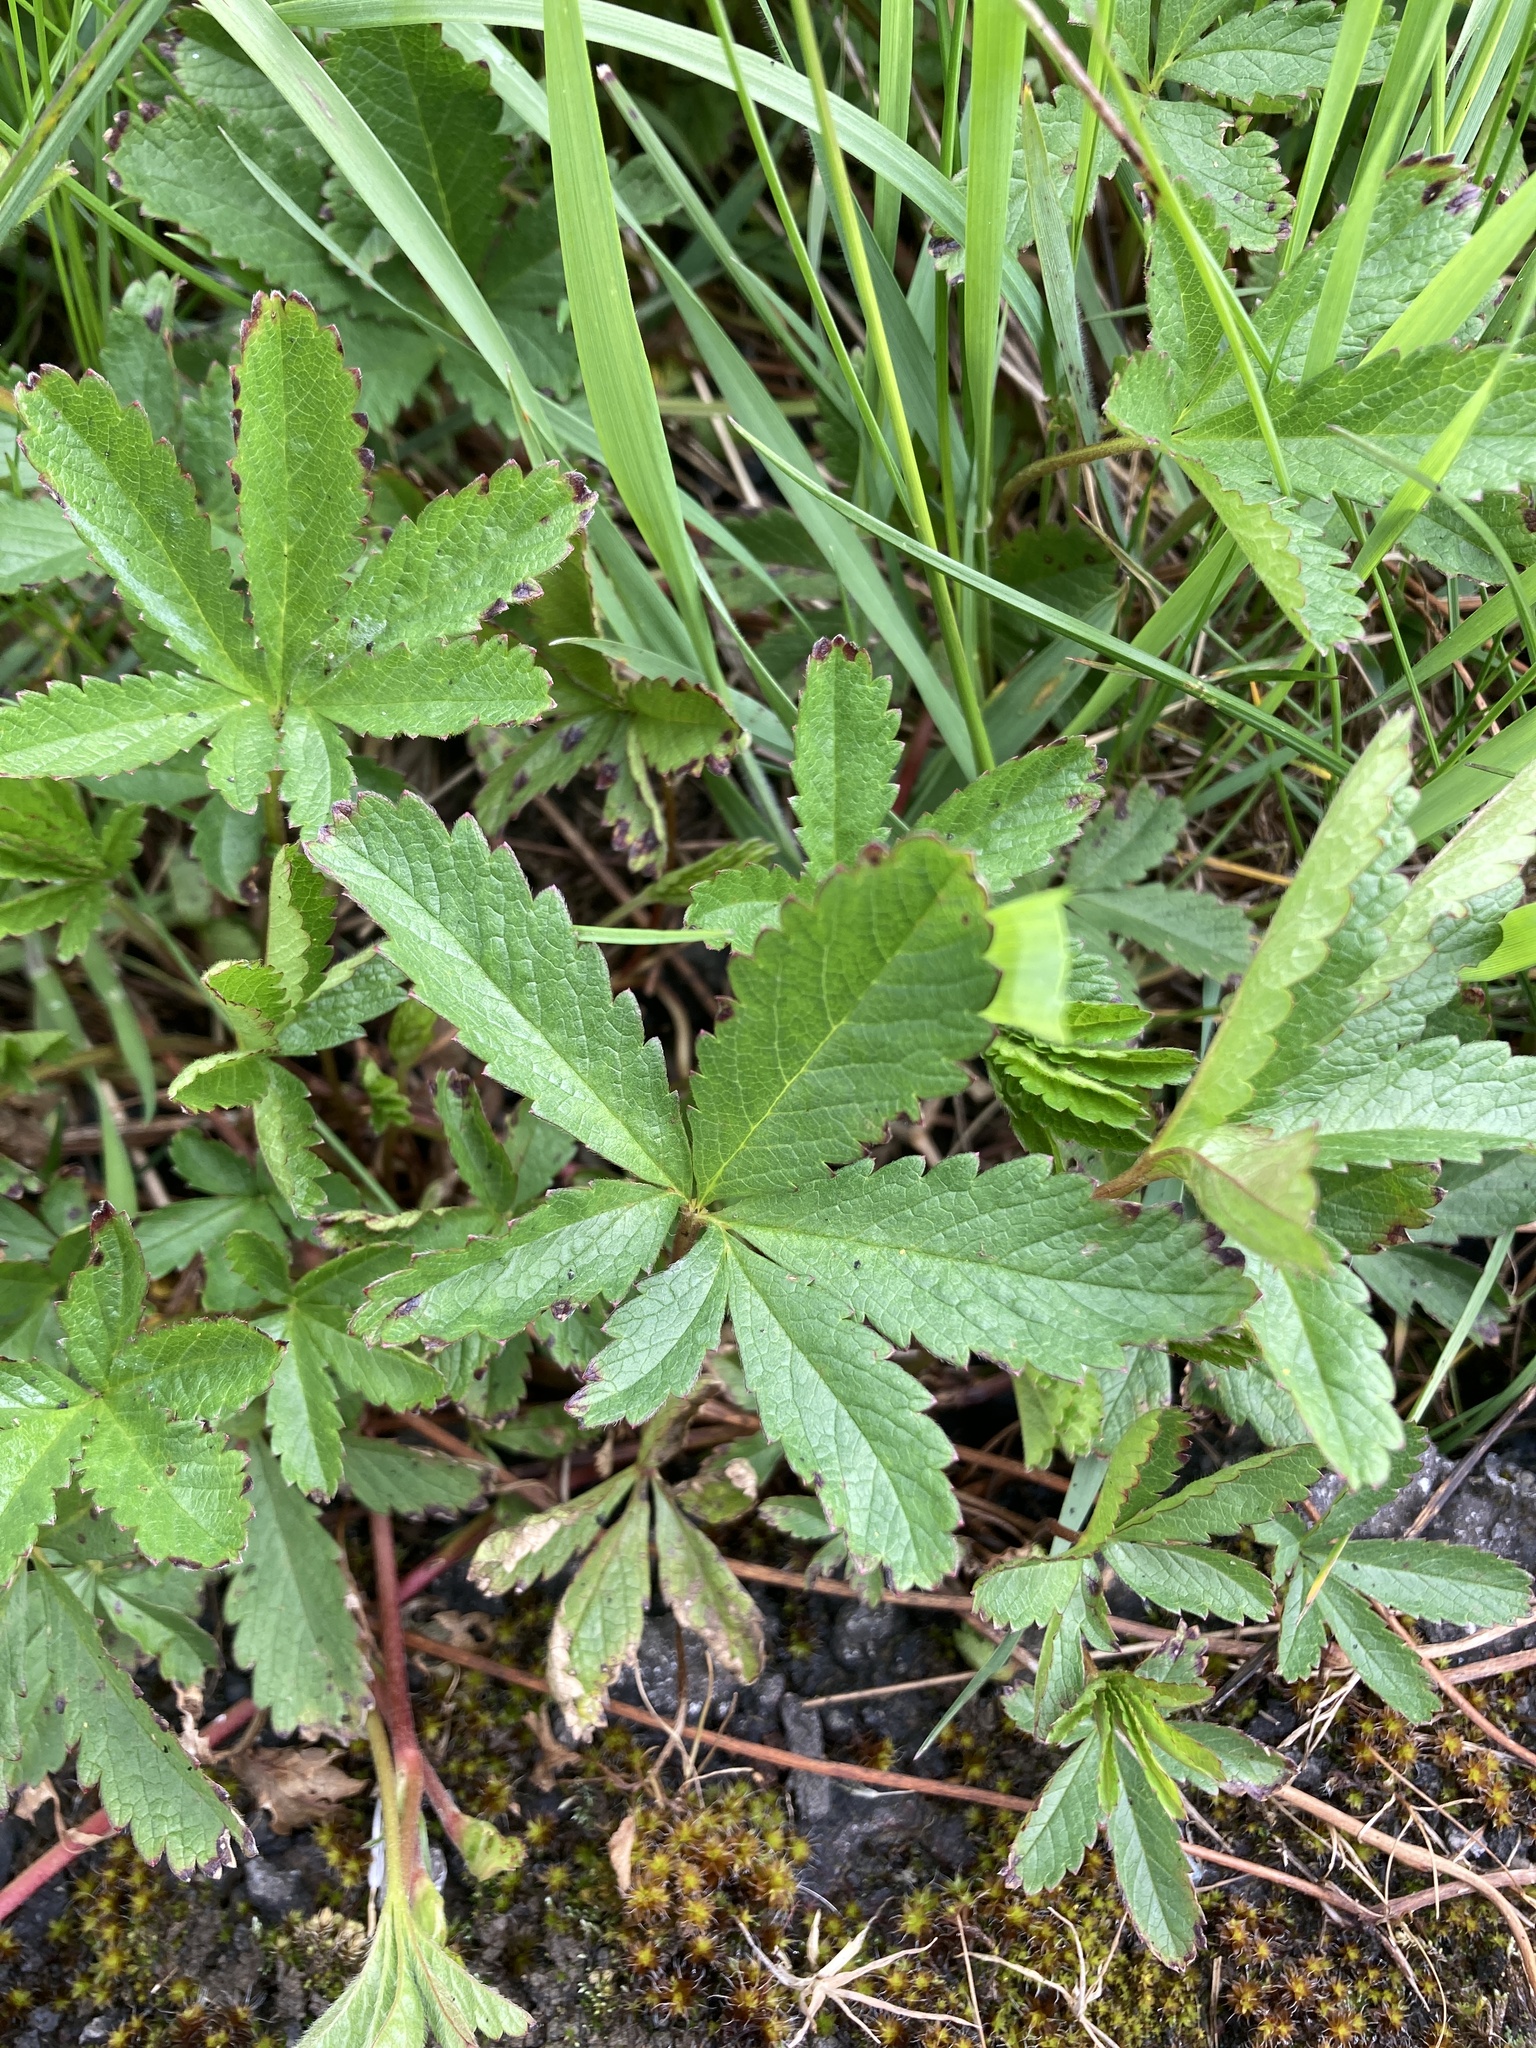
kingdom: Plantae
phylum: Tracheophyta
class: Magnoliopsida
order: Rosales
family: Rosaceae
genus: Potentilla
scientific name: Potentilla reptans
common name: Creeping cinquefoil
